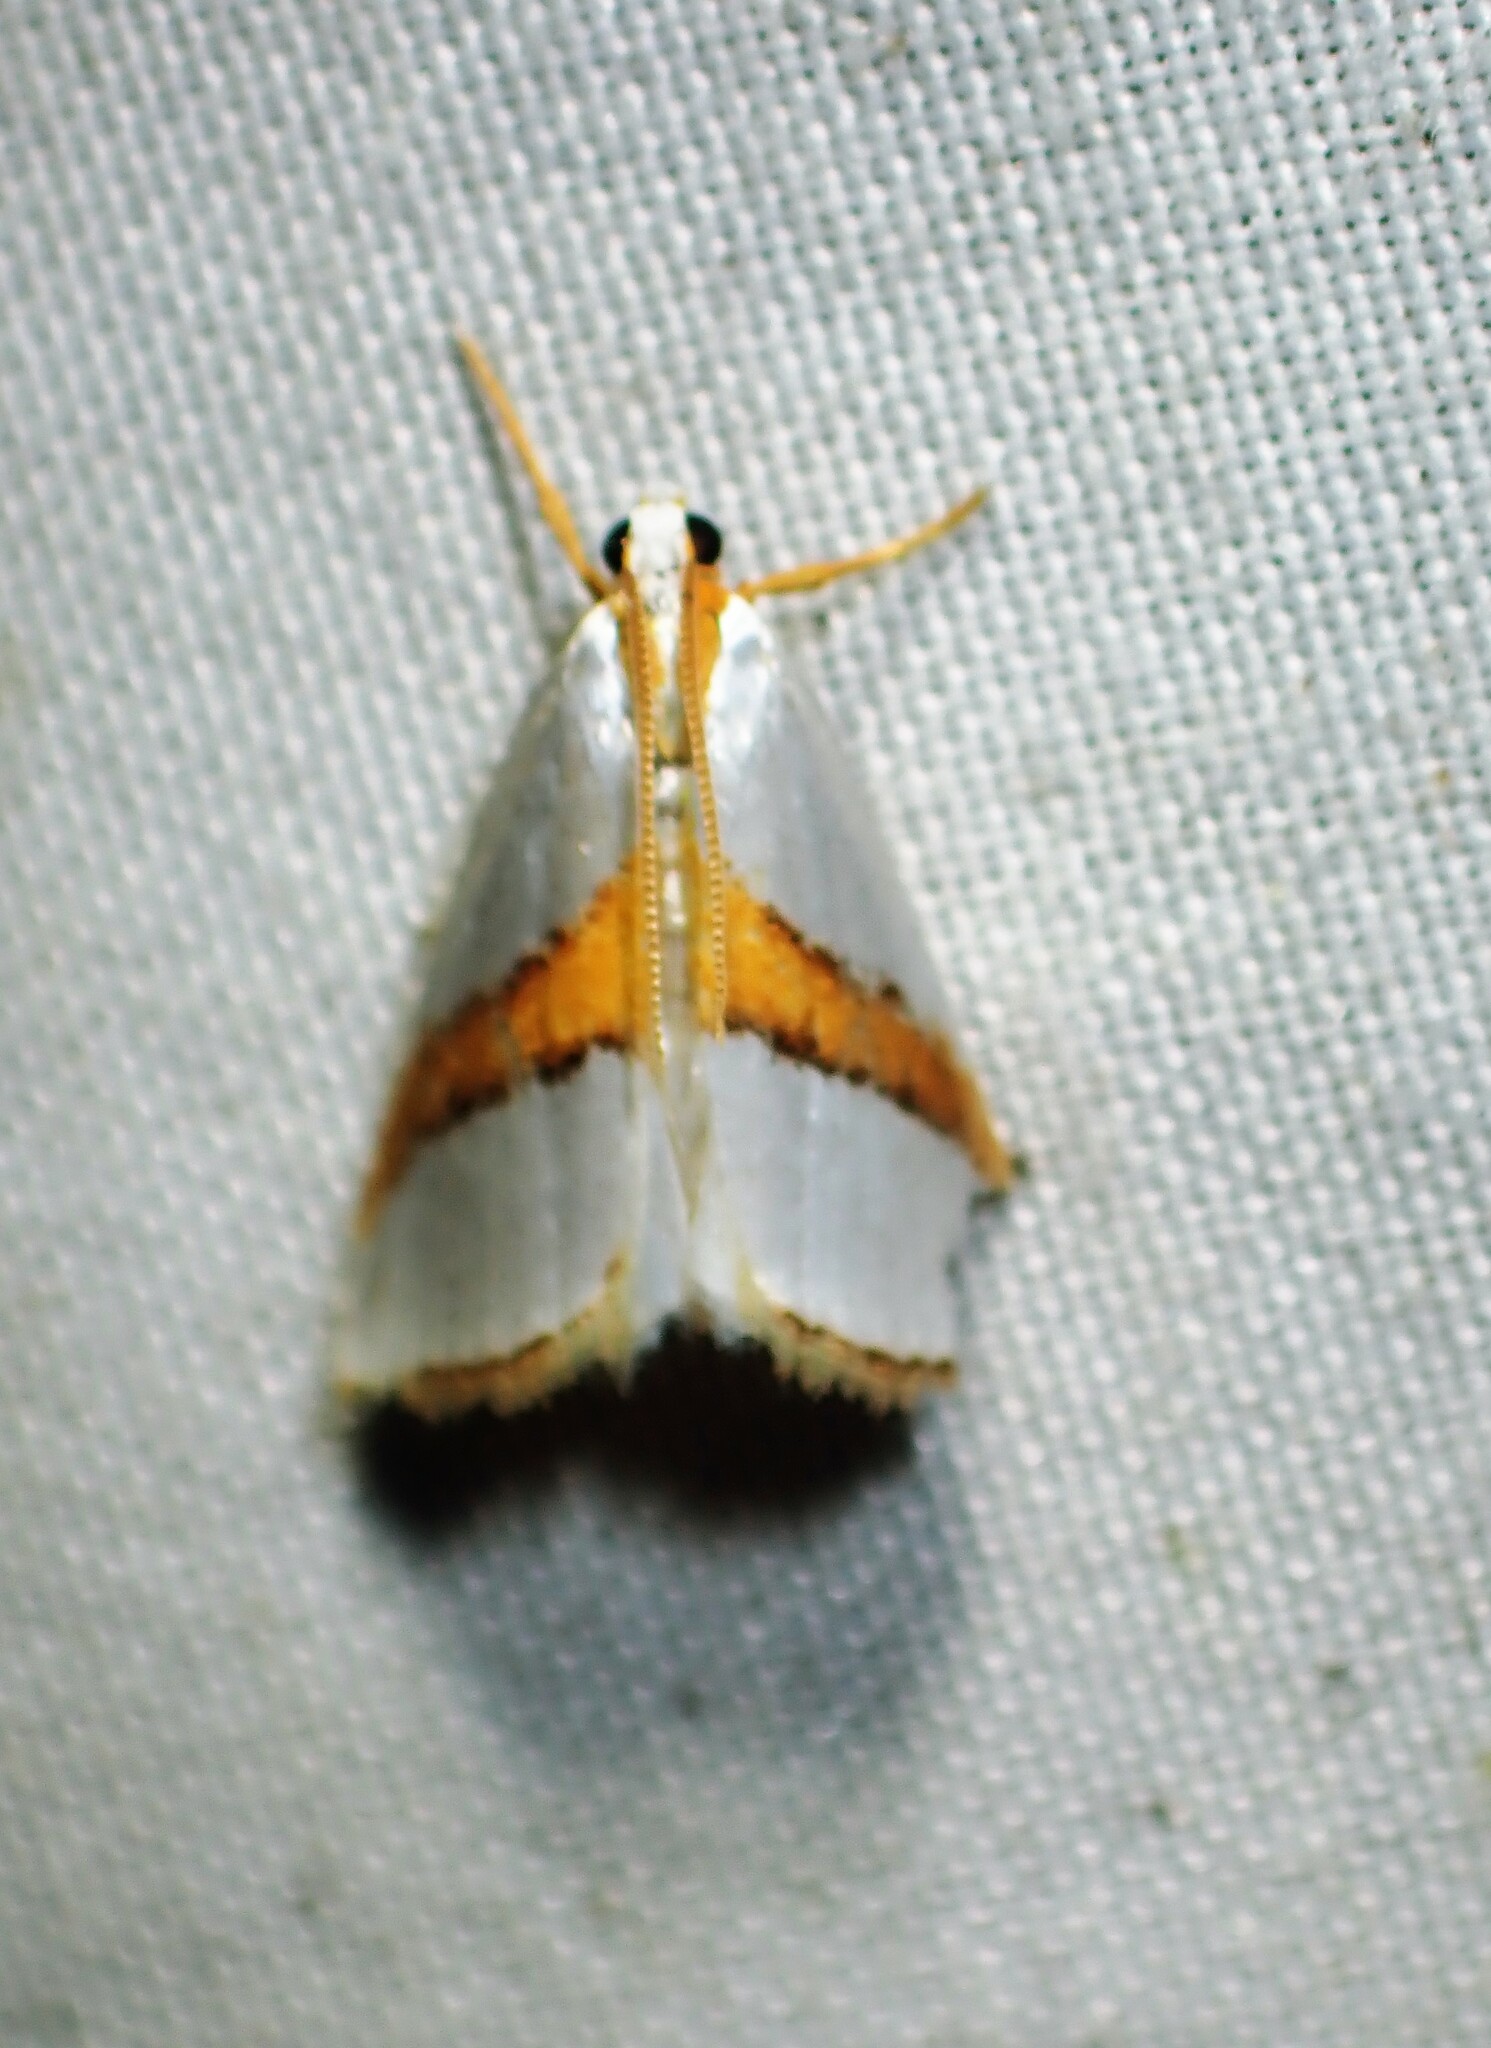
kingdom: Animalia
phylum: Arthropoda
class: Insecta
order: Lepidoptera
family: Crambidae
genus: Vaxi
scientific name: Vaxi critica
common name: Straight-lined vaxi moth
